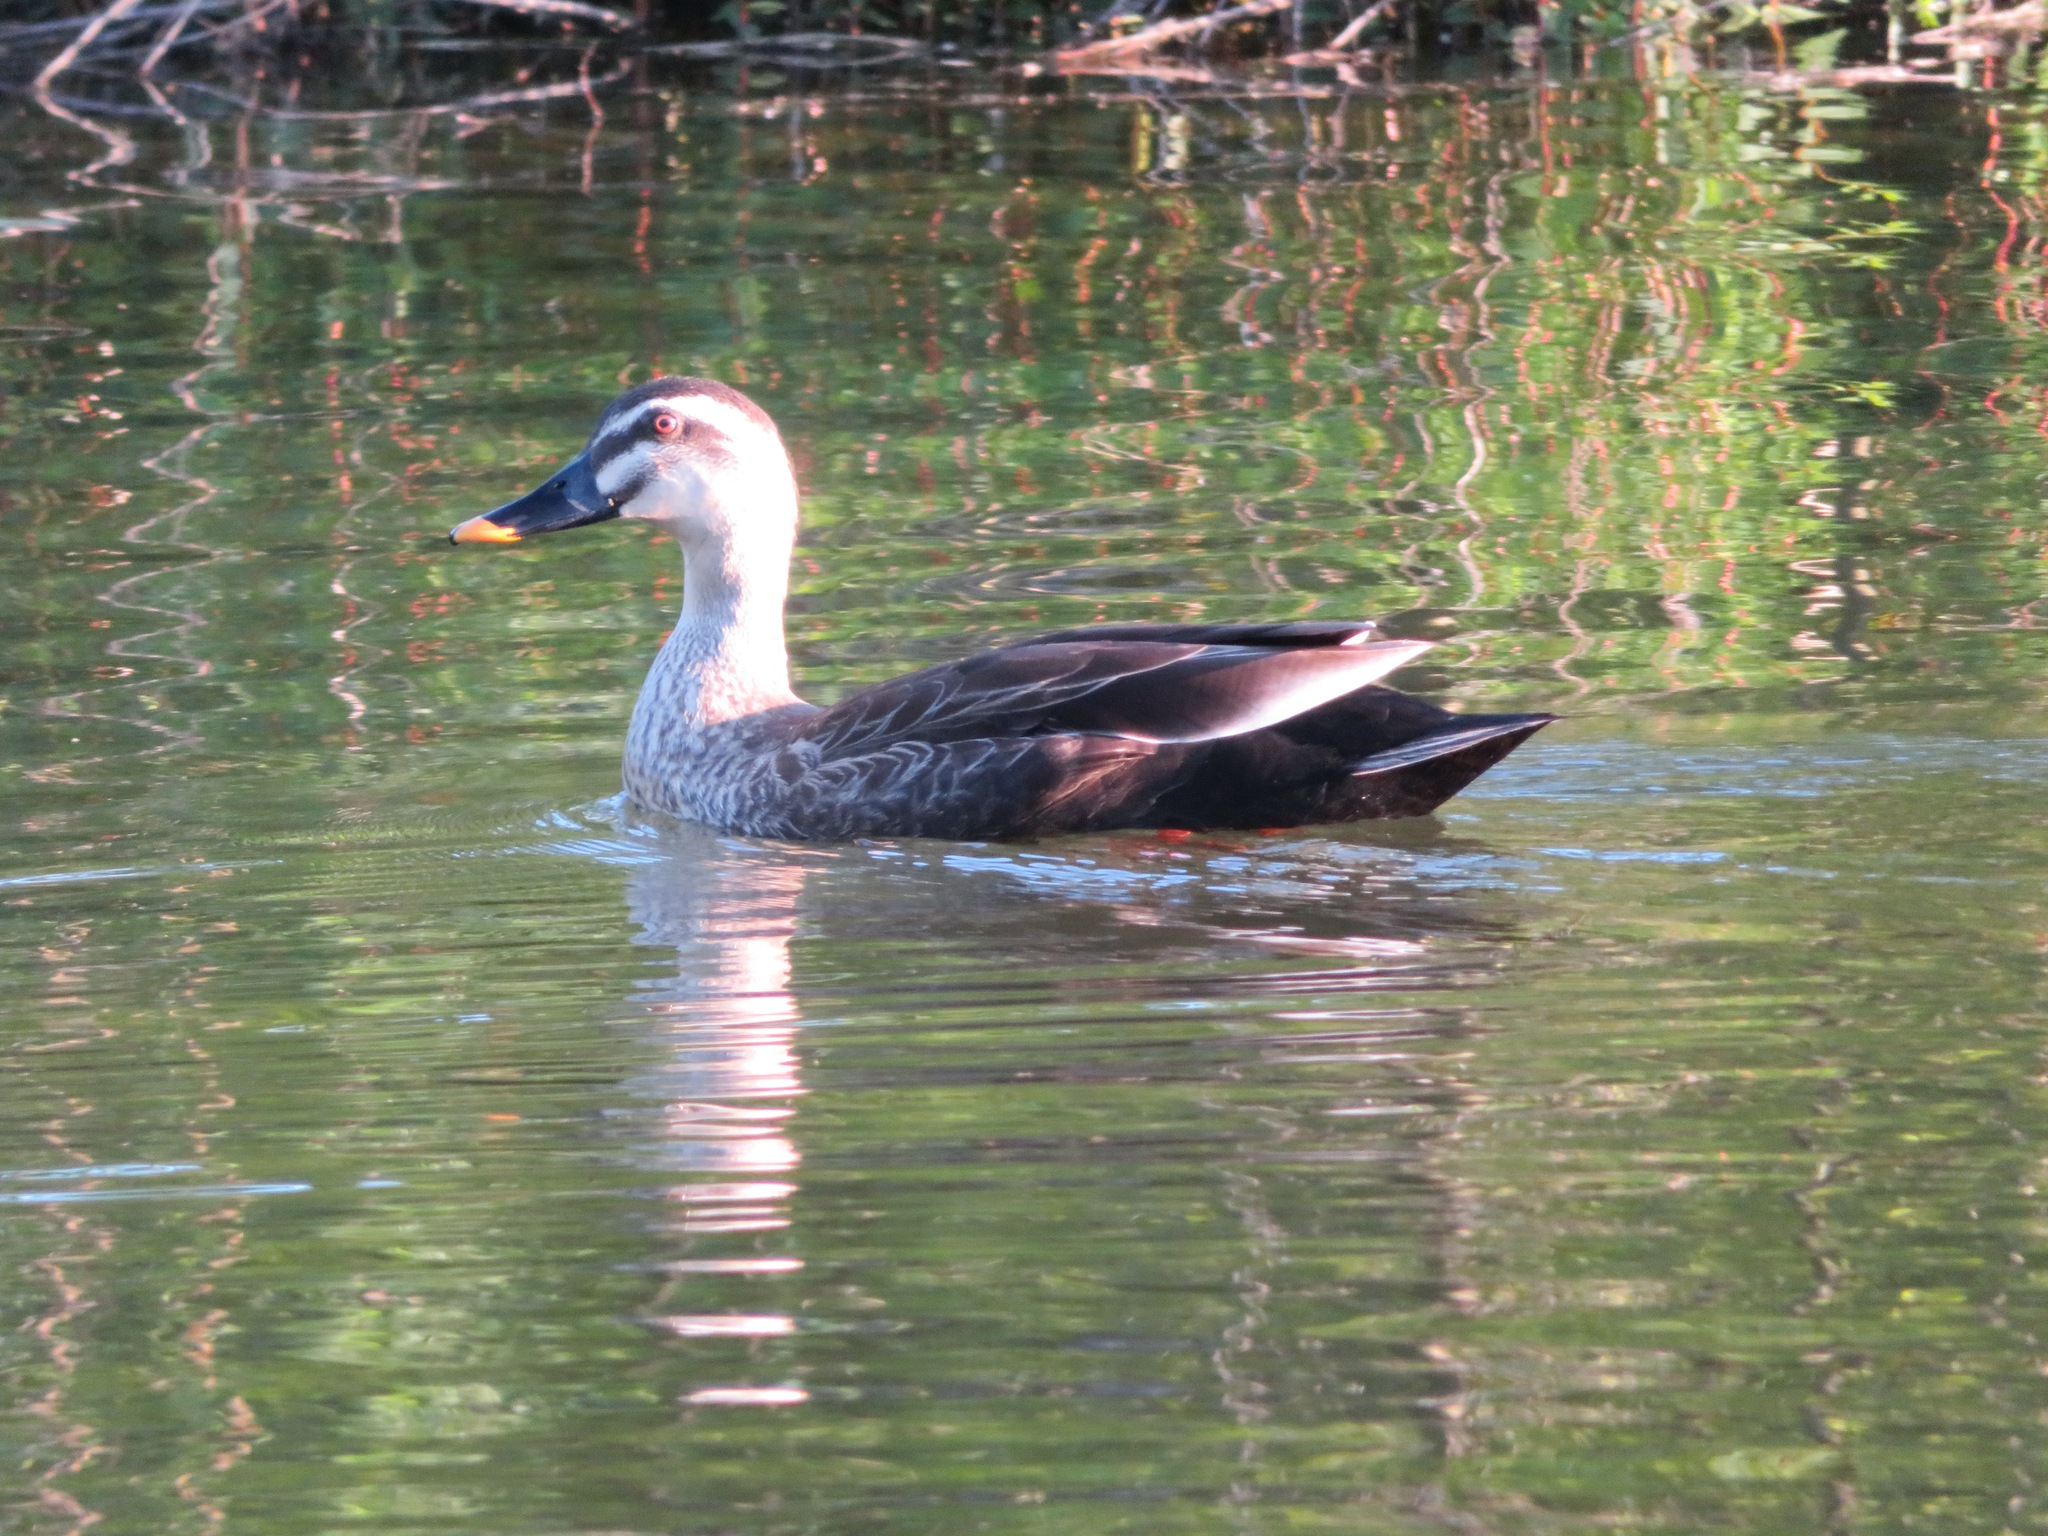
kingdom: Animalia
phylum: Chordata
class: Aves
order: Anseriformes
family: Anatidae
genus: Anas
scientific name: Anas zonorhyncha
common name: Eastern spot-billed duck
